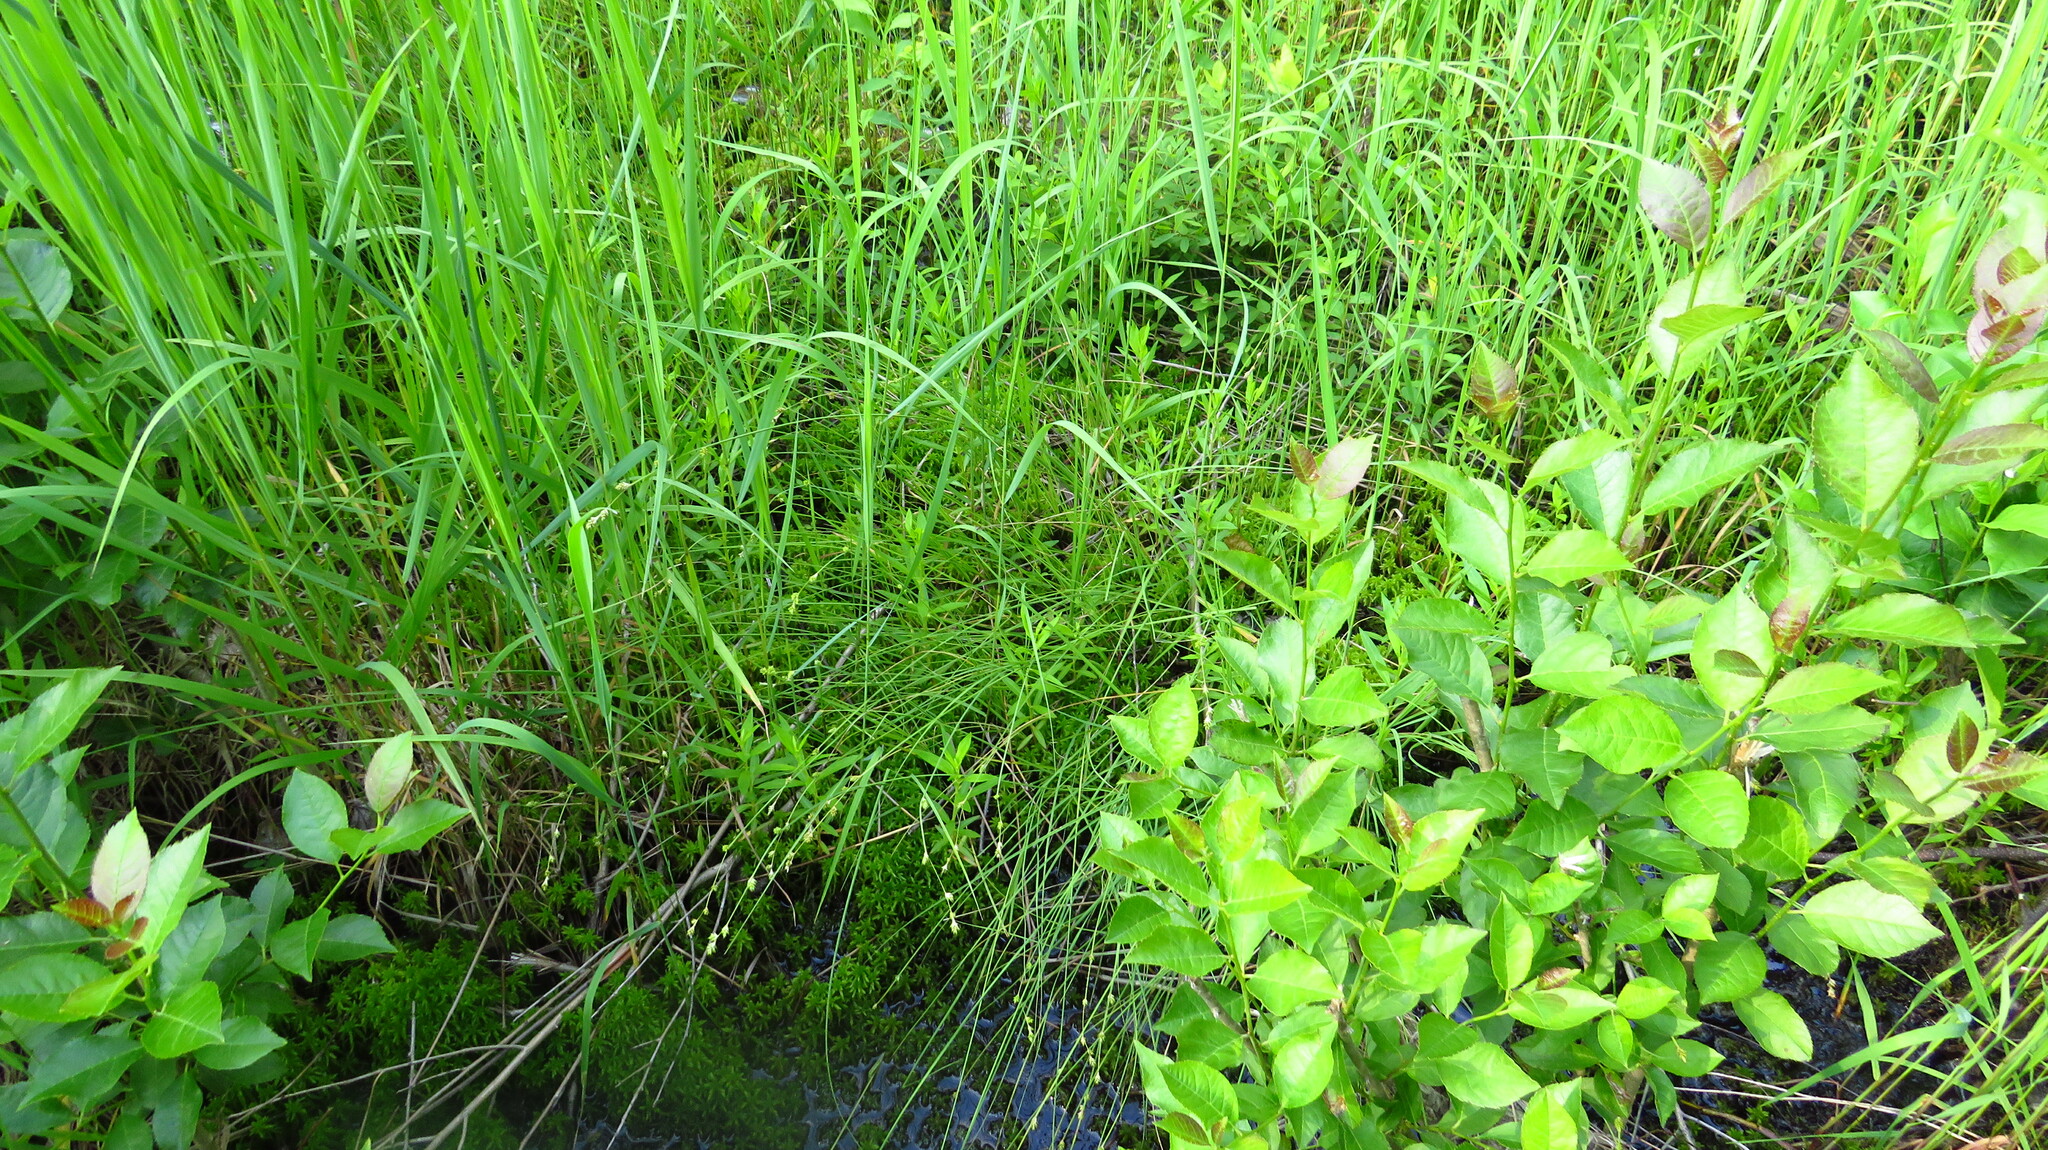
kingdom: Plantae
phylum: Tracheophyta
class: Liliopsida
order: Poales
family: Cyperaceae
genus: Carex
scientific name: Carex canescens
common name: White sedge
